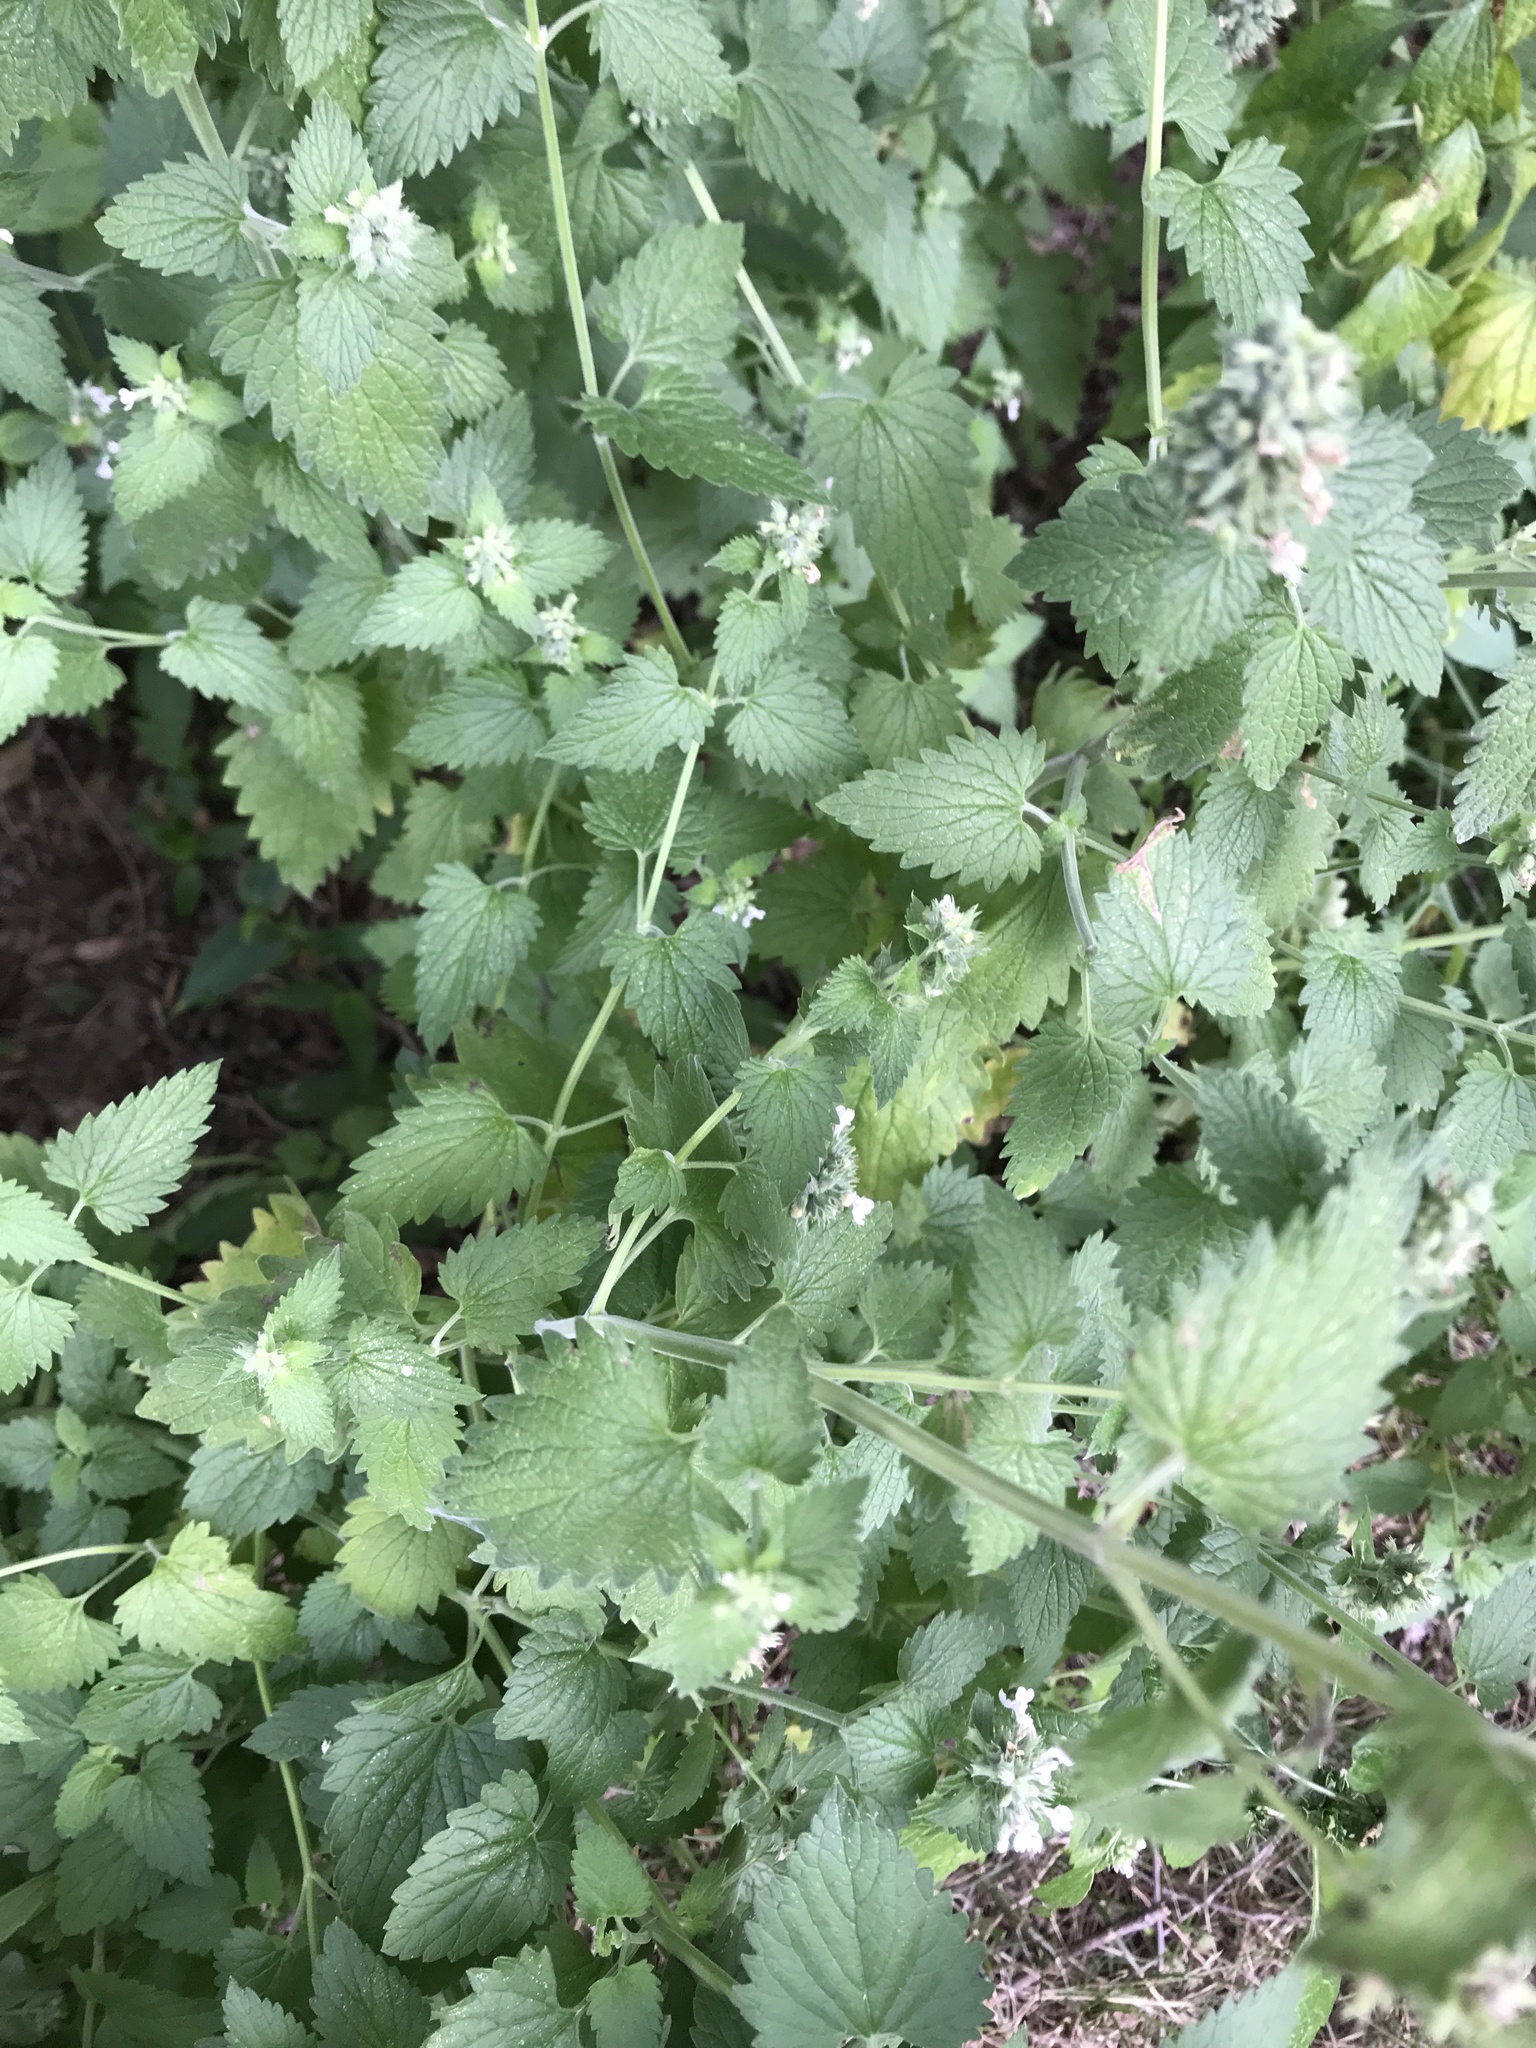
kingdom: Plantae
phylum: Tracheophyta
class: Magnoliopsida
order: Lamiales
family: Lamiaceae
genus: Nepeta
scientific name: Nepeta cataria
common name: Catnip
